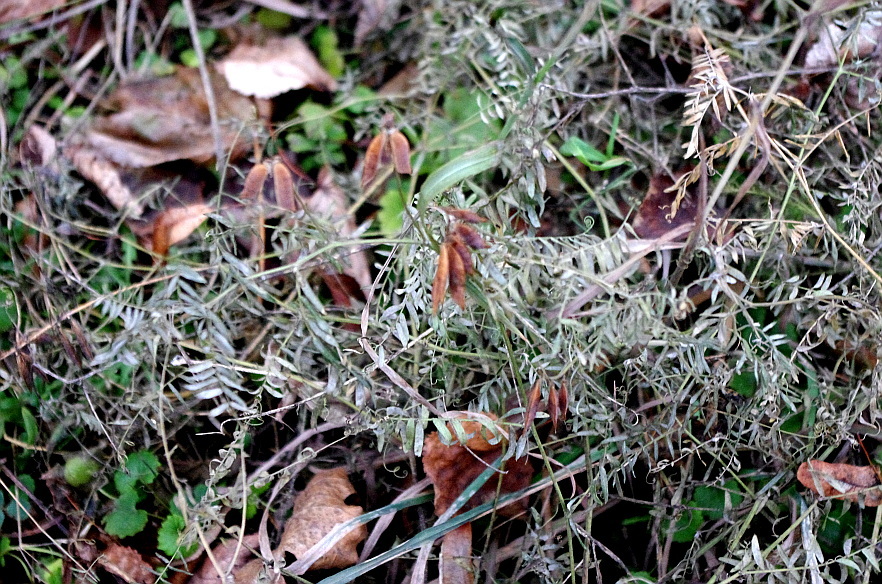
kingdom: Plantae
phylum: Tracheophyta
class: Magnoliopsida
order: Fabales
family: Fabaceae
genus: Vicia
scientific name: Vicia cracca
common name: Bird vetch
